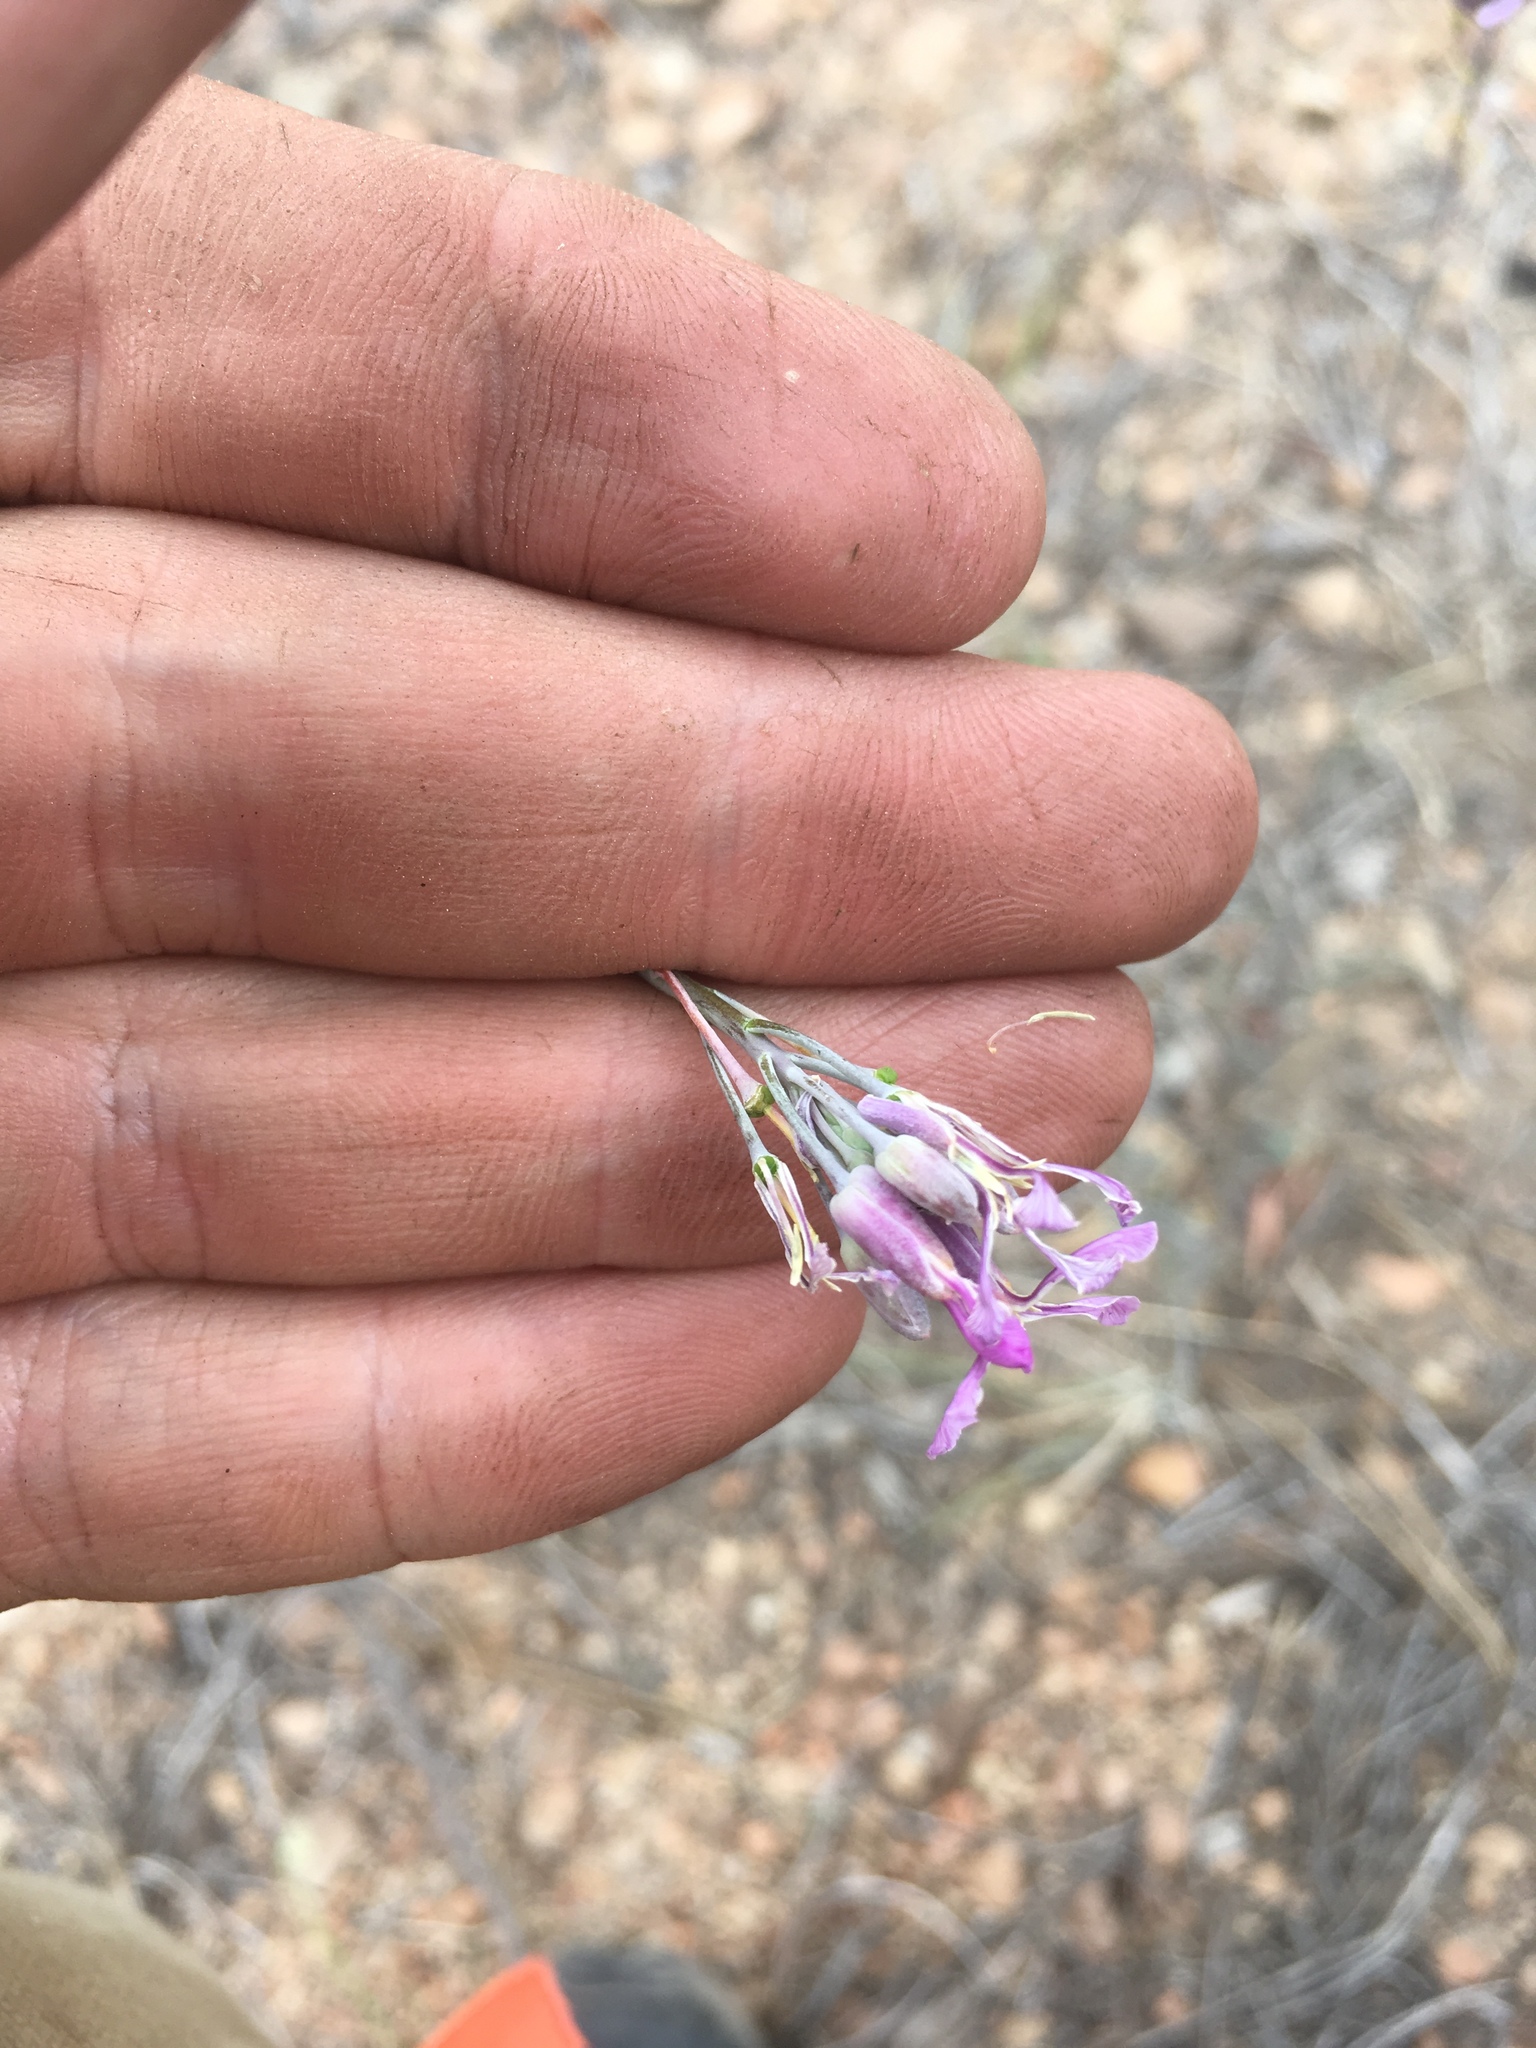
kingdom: Plantae
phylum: Tracheophyta
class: Magnoliopsida
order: Brassicales
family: Brassicaceae
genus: Hesperidanthus
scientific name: Hesperidanthus linearifolius
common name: Slim-leaf plains mustard
